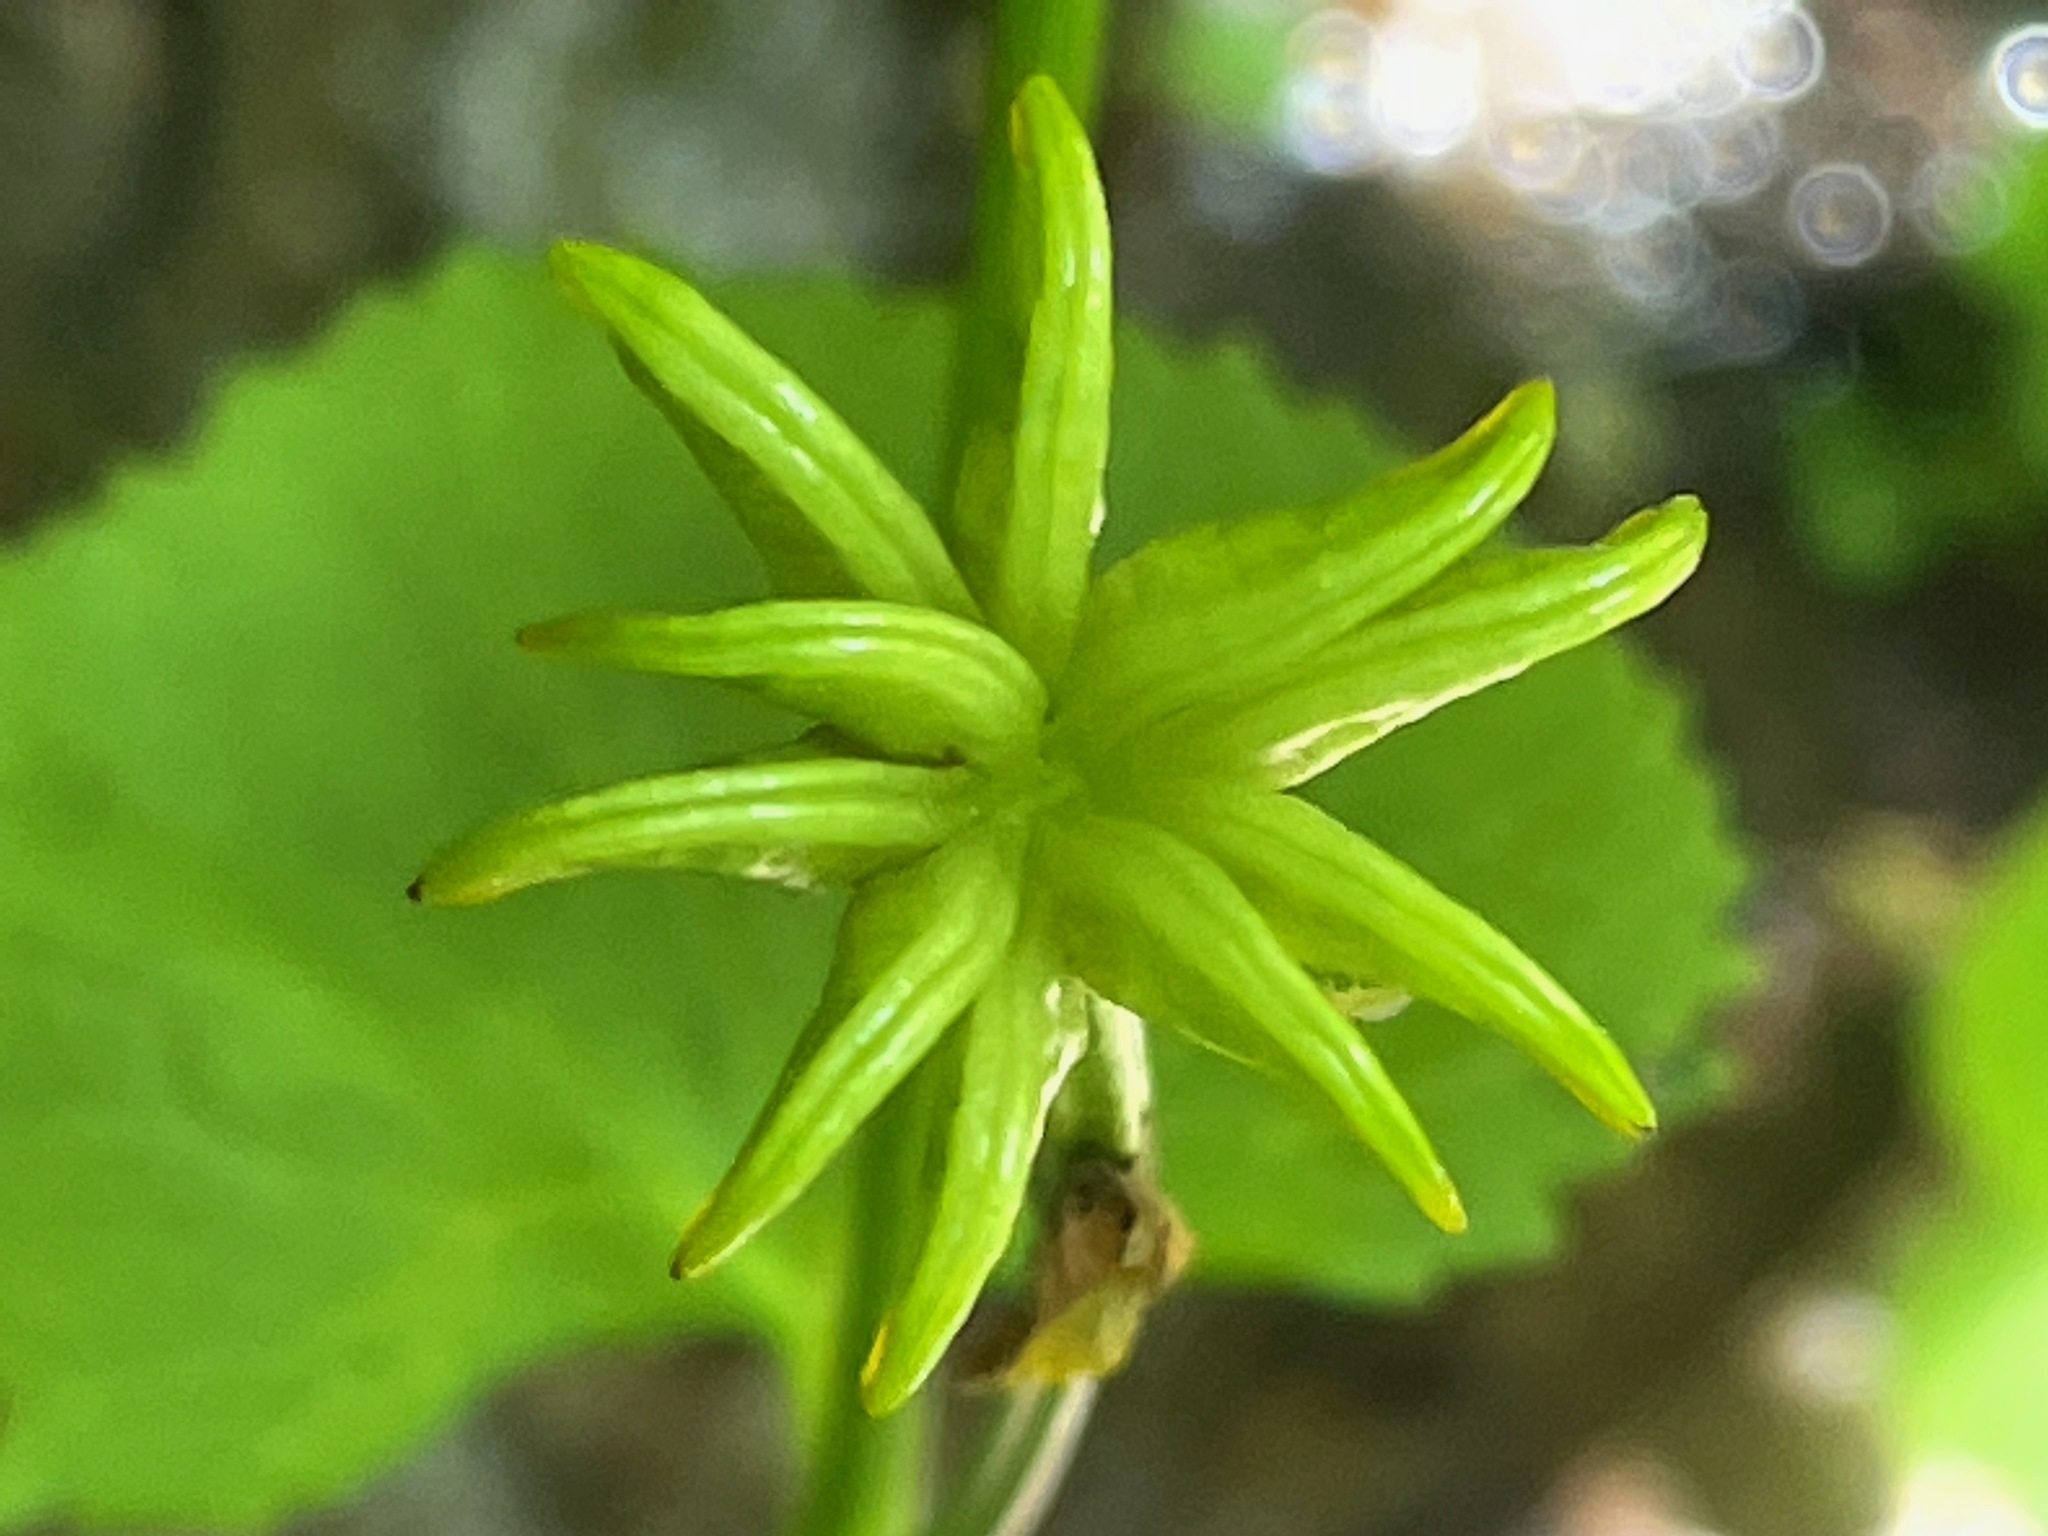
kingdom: Plantae
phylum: Tracheophyta
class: Magnoliopsida
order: Ranunculales
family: Ranunculaceae
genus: Caltha
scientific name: Caltha palustris
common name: Marsh marigold
